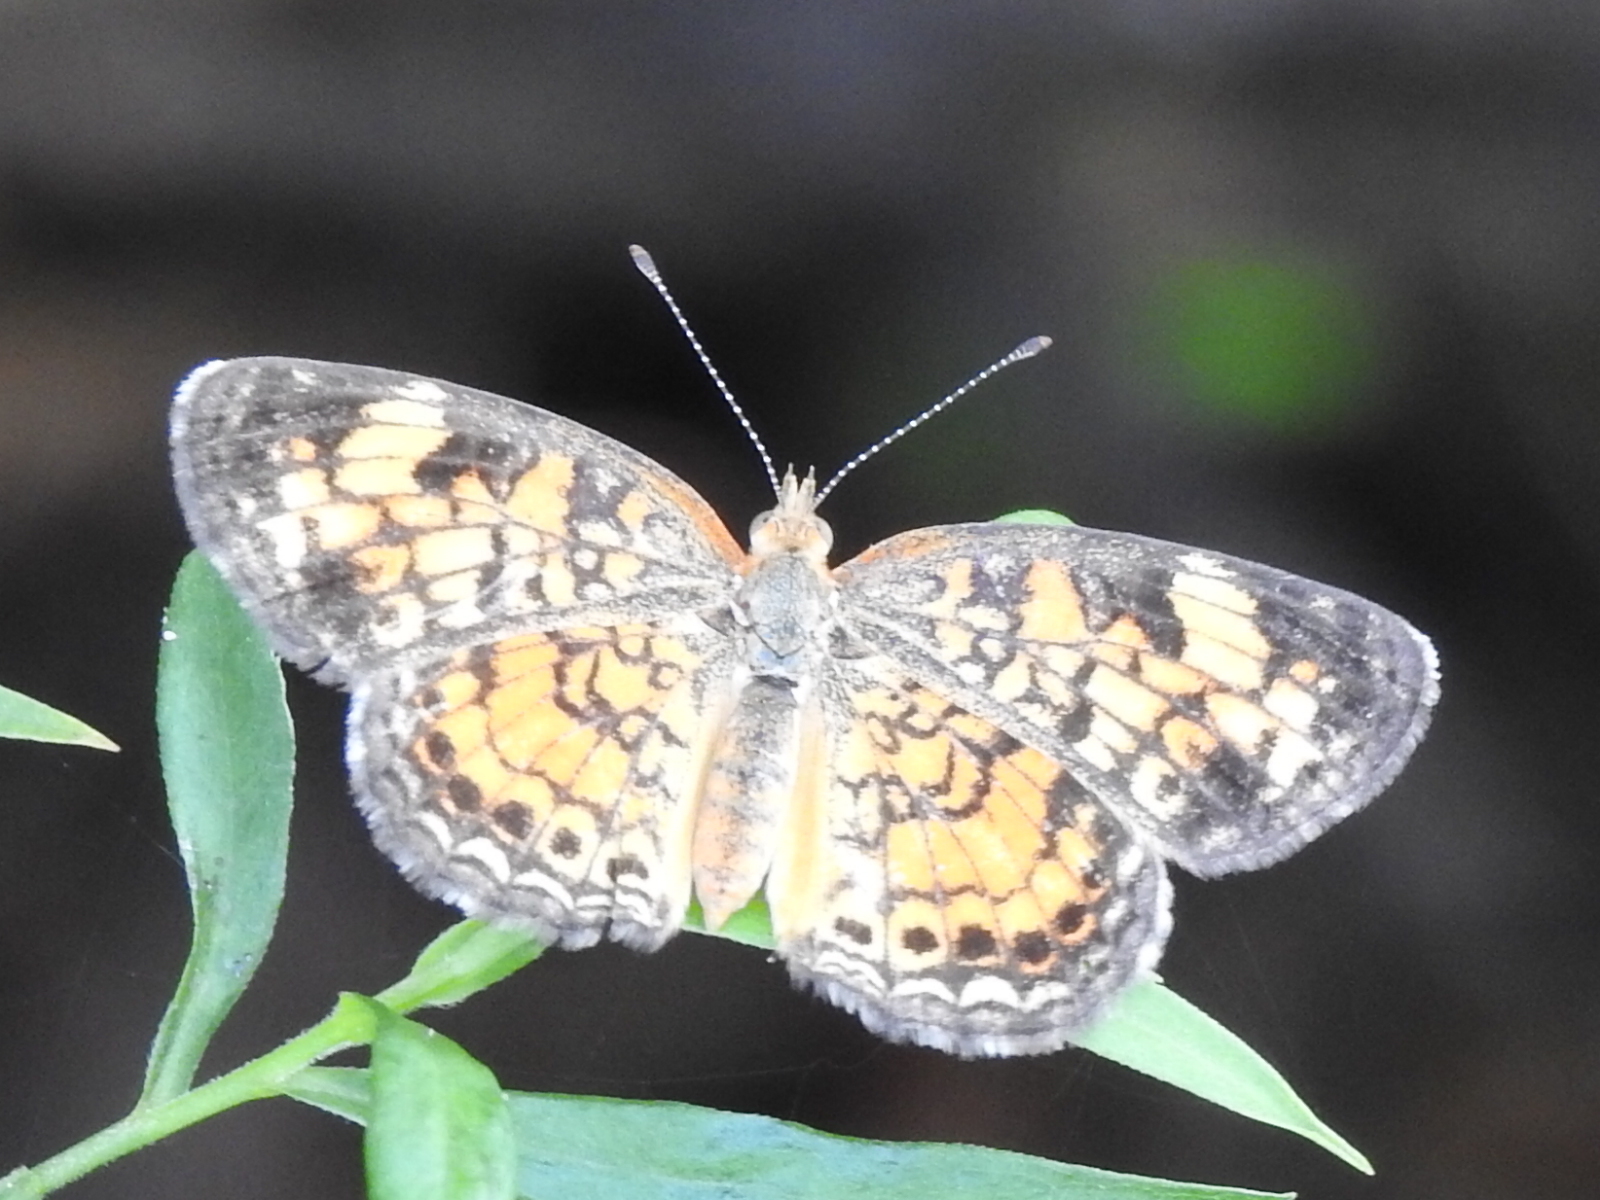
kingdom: Animalia
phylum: Arthropoda
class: Insecta
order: Lepidoptera
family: Nymphalidae
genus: Phyciodes
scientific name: Phyciodes tharos
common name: Pearl crescent
